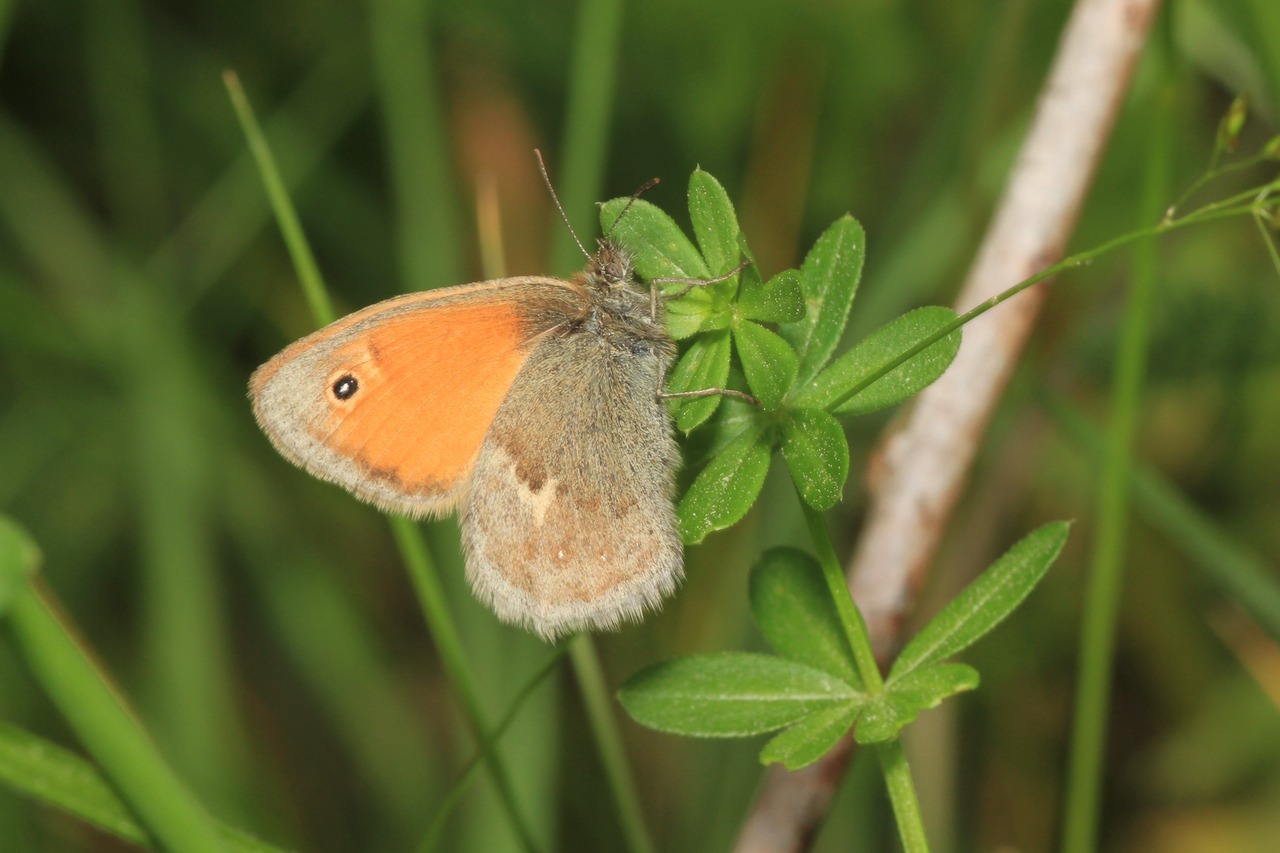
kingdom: Animalia
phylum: Arthropoda
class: Insecta
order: Lepidoptera
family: Nymphalidae
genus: Coenonympha
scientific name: Coenonympha pamphilus
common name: Small heath
